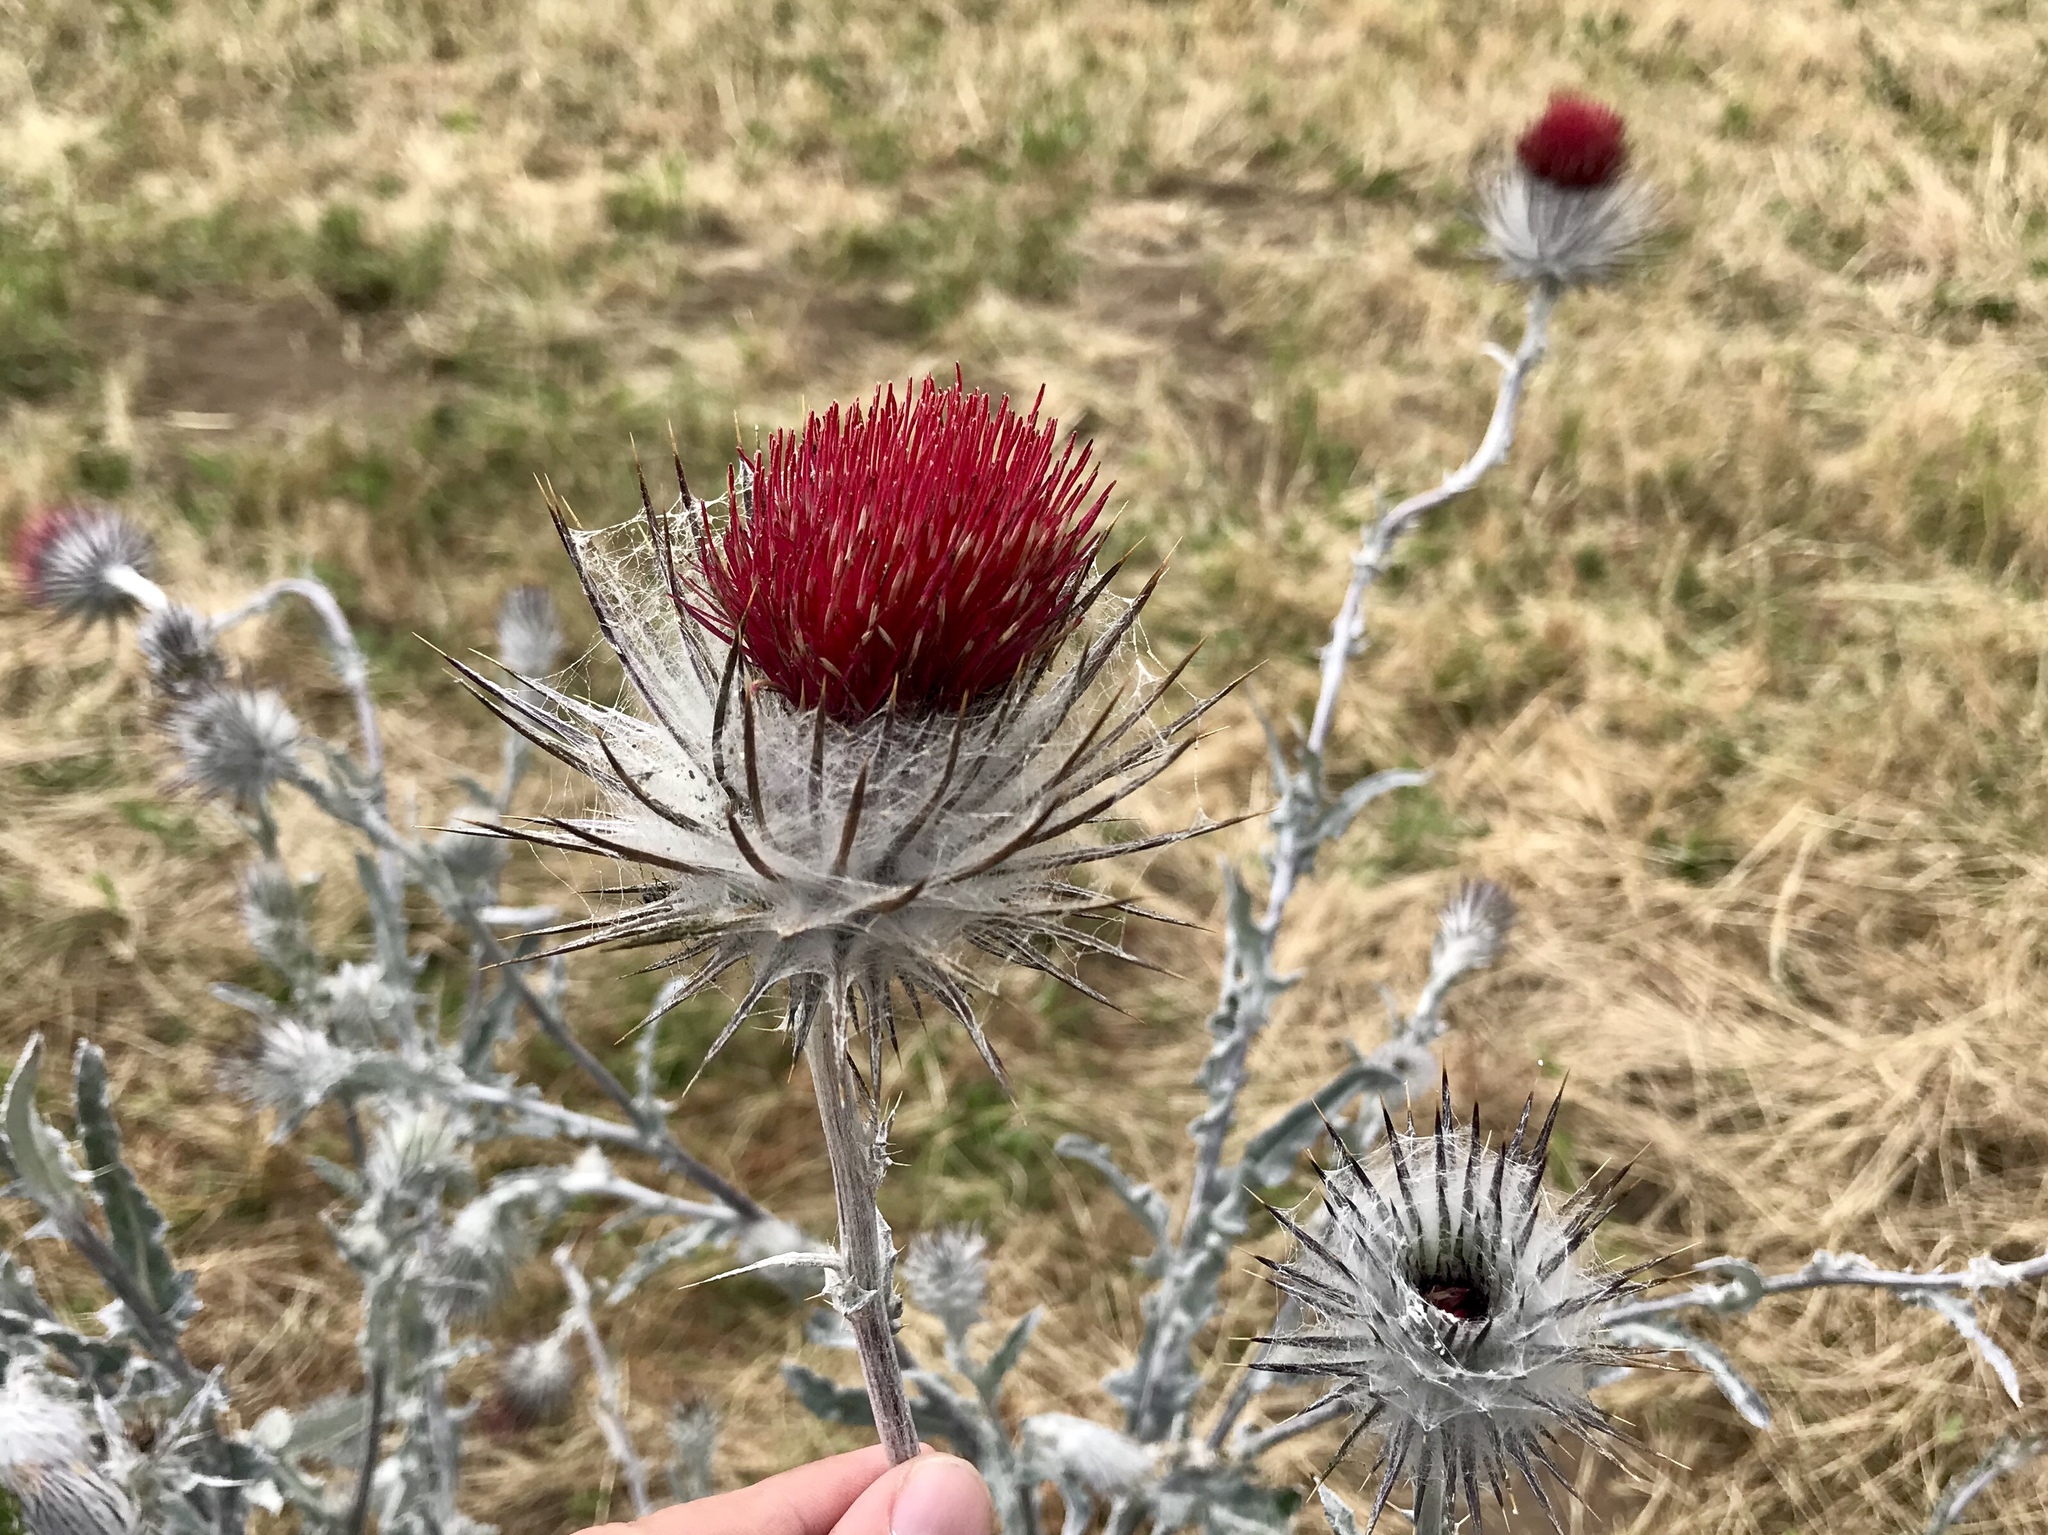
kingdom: Plantae
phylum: Tracheophyta
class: Magnoliopsida
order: Asterales
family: Asteraceae
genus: Cirsium
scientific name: Cirsium occidentale
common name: Western thistle
